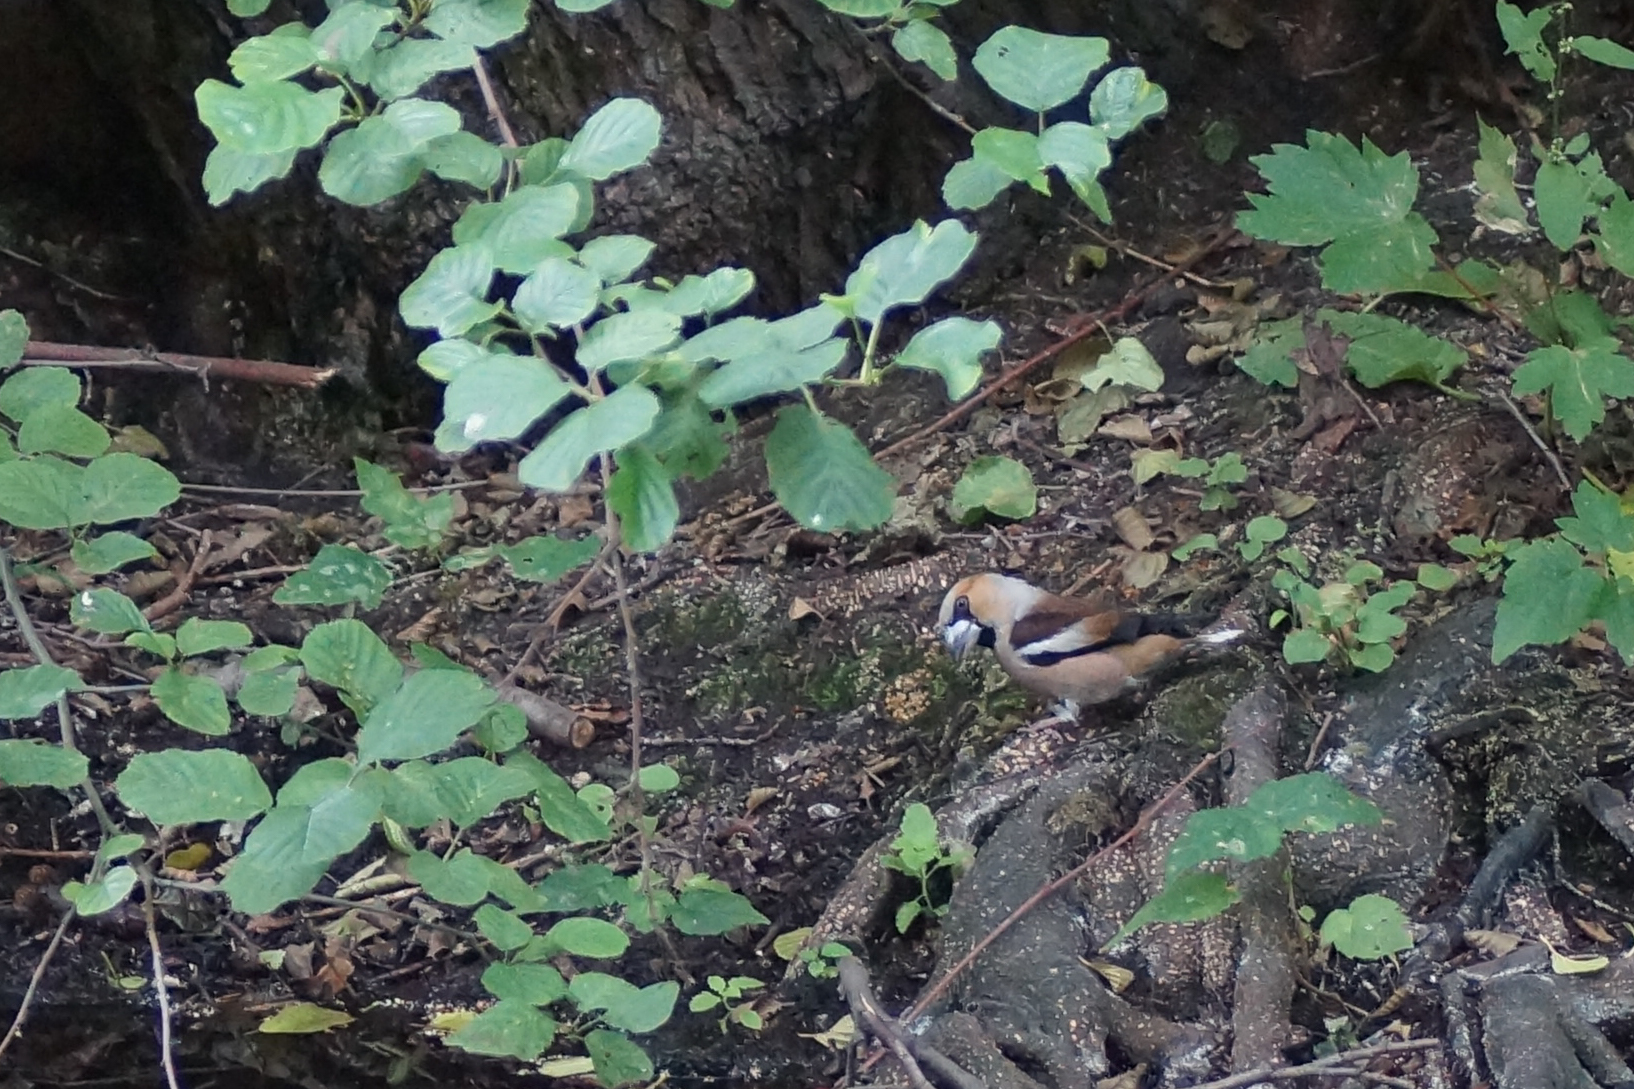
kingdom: Animalia
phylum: Chordata
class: Aves
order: Passeriformes
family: Fringillidae
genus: Coccothraustes
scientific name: Coccothraustes coccothraustes
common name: Hawfinch
